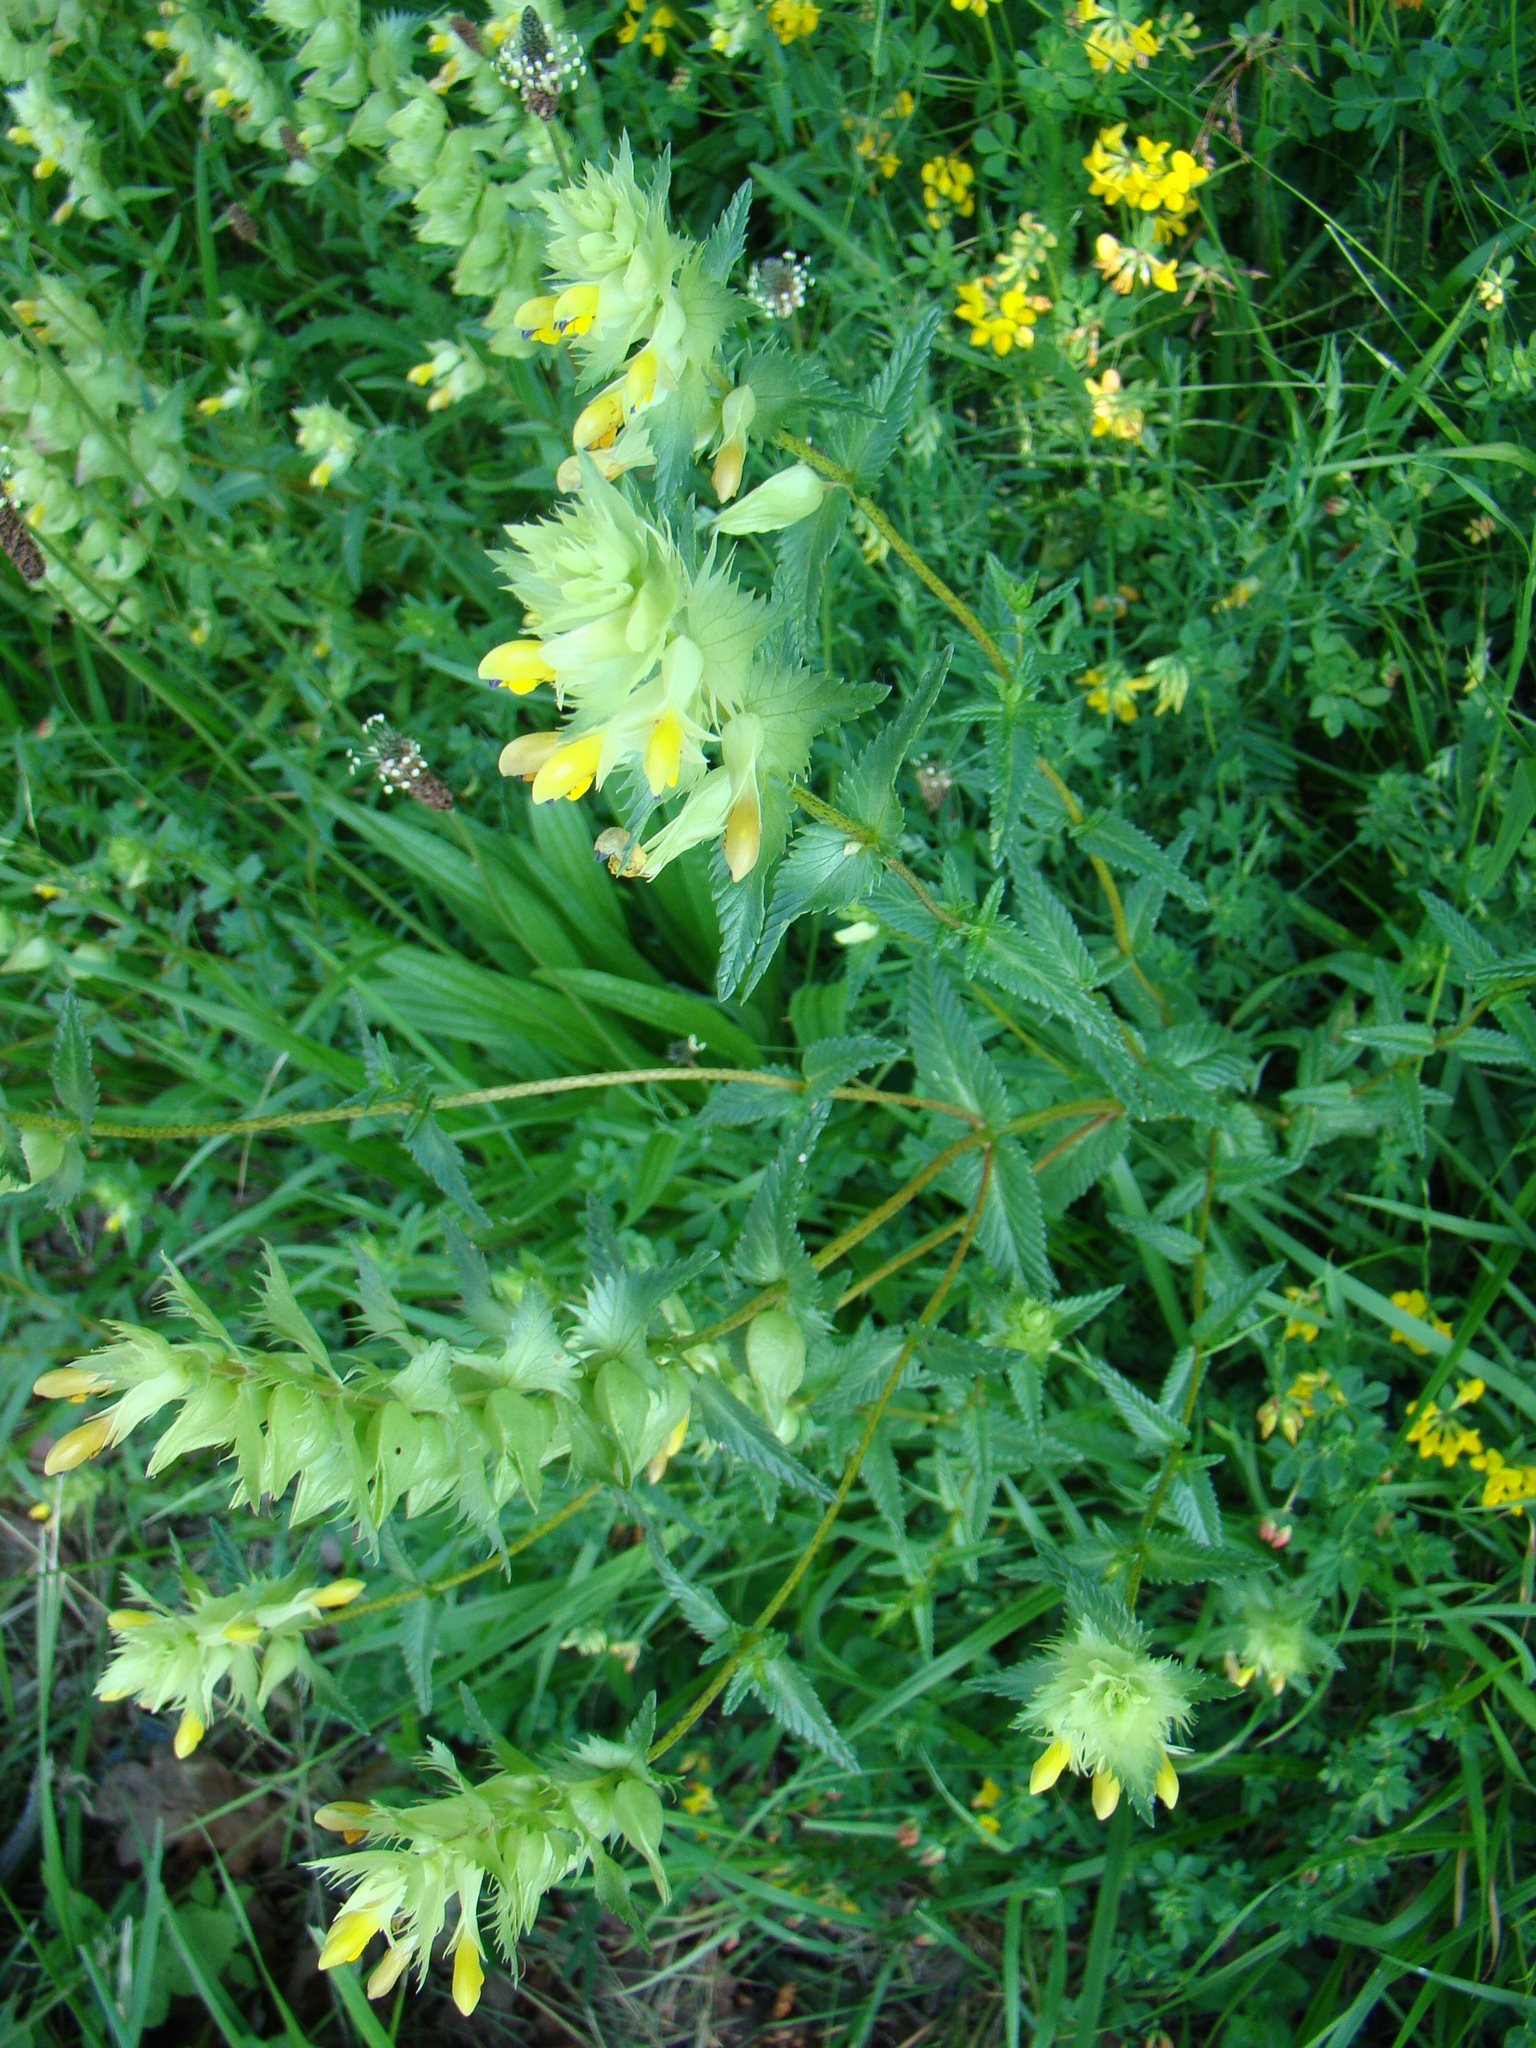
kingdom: Plantae
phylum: Tracheophyta
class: Magnoliopsida
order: Lamiales
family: Orobanchaceae
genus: Rhinanthus
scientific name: Rhinanthus serotinus
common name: Late-flowering yellow rattle
